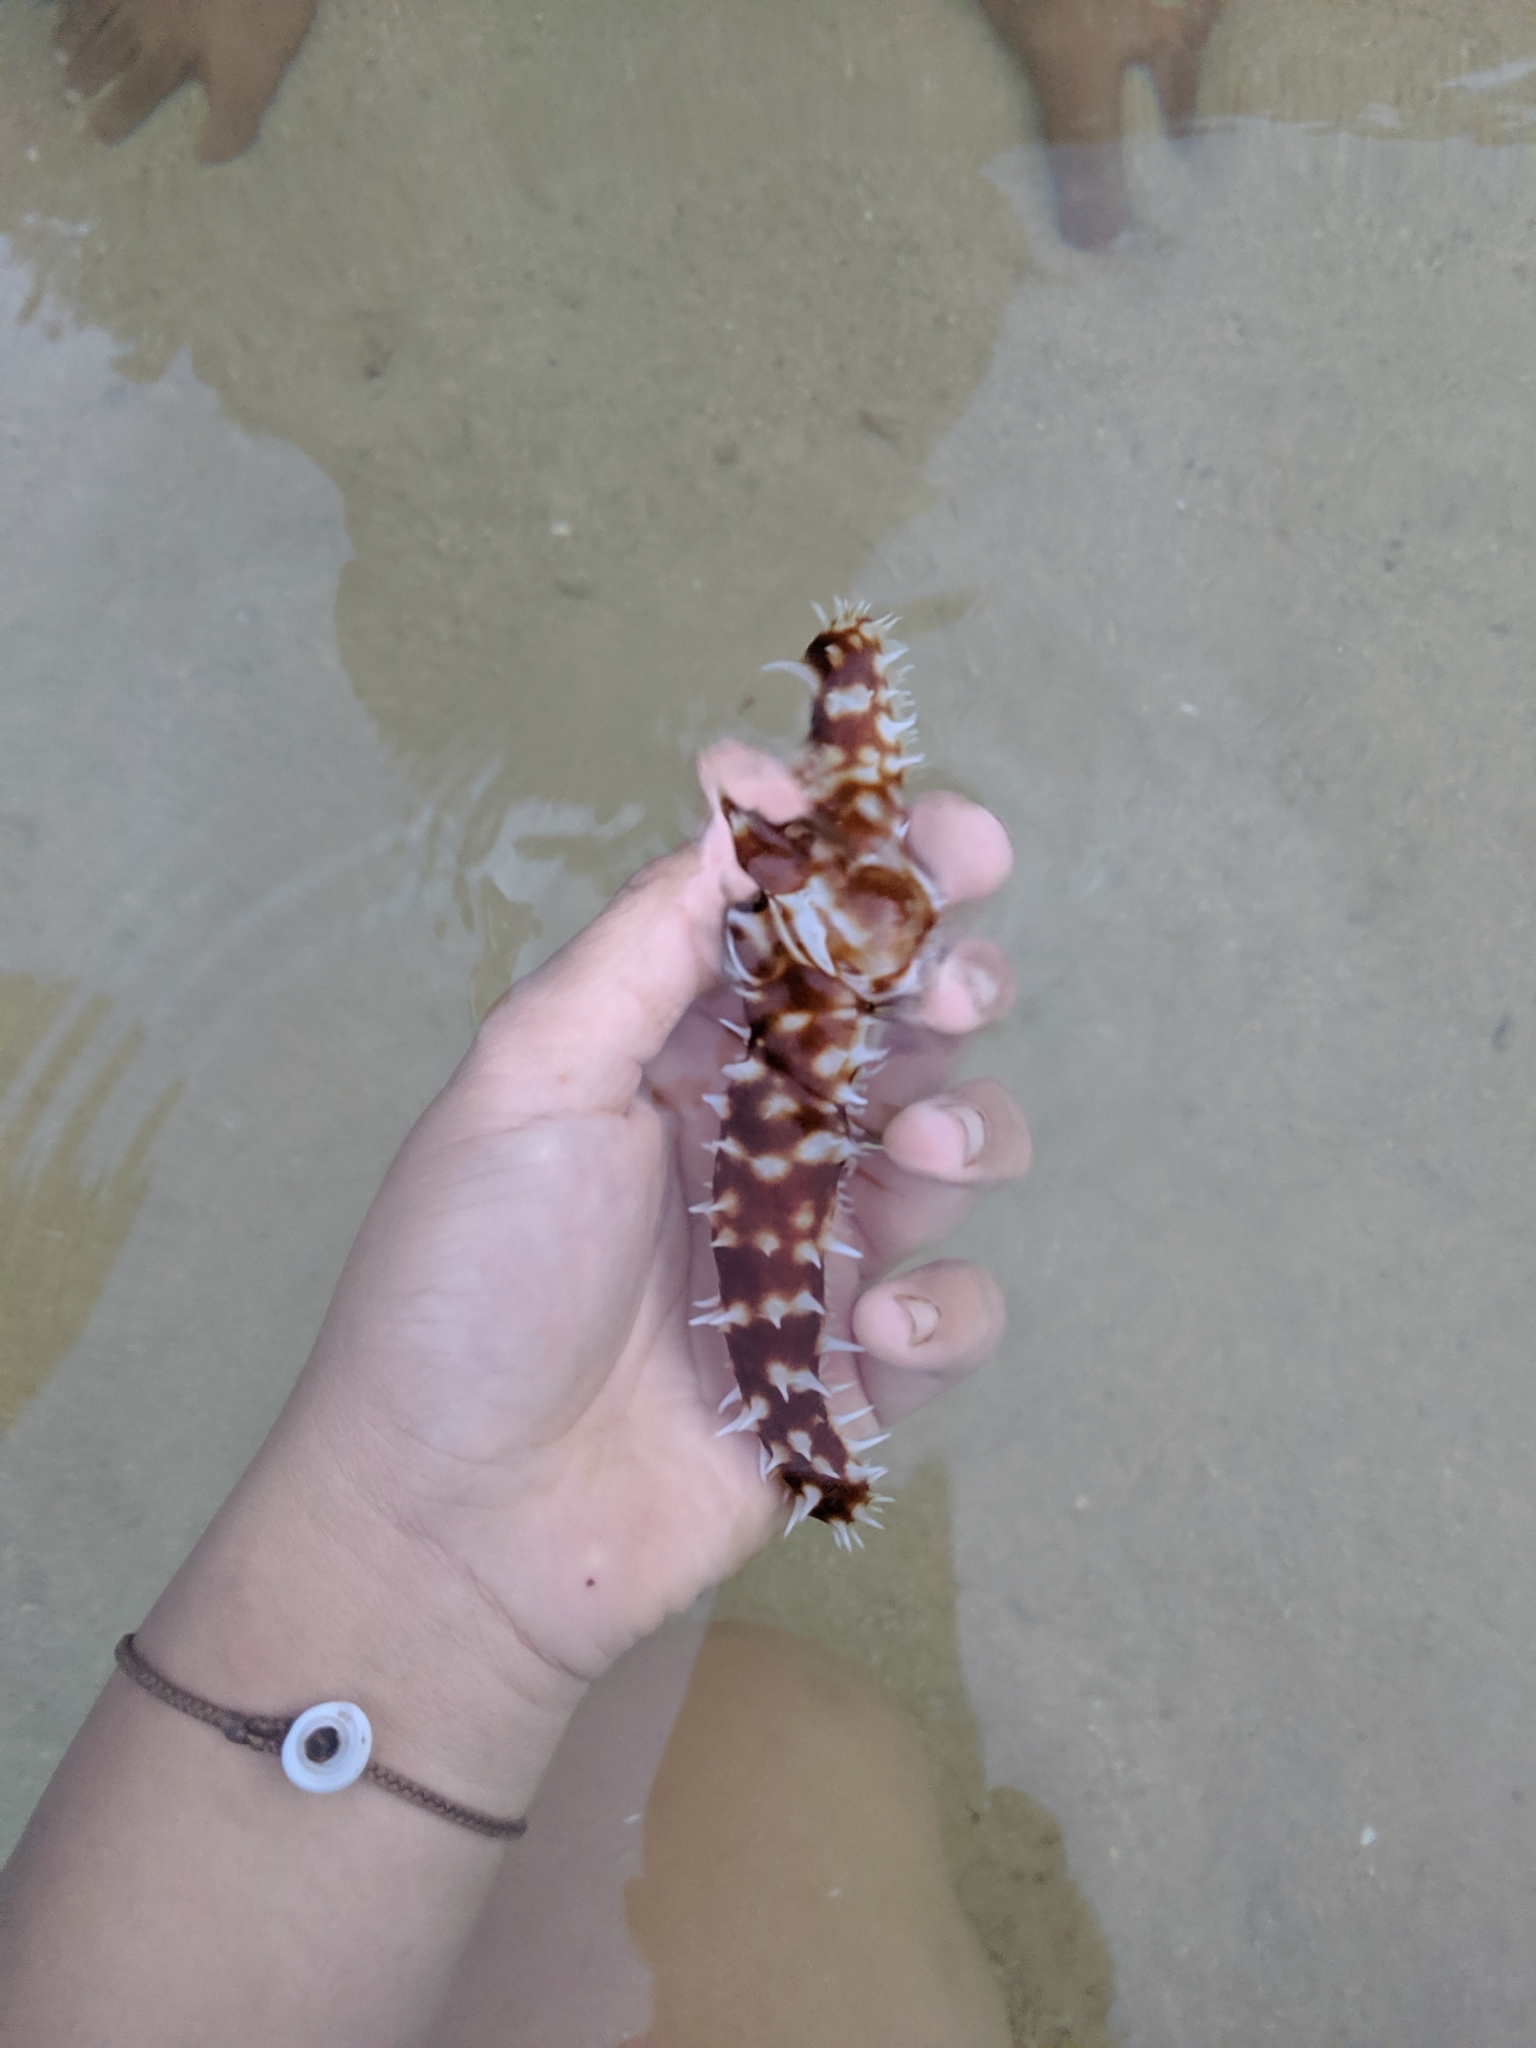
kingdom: Animalia
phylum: Echinodermata
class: Holothuroidea
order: Holothuriida
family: Holothuriidae
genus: Holothuria
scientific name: Holothuria hilla
